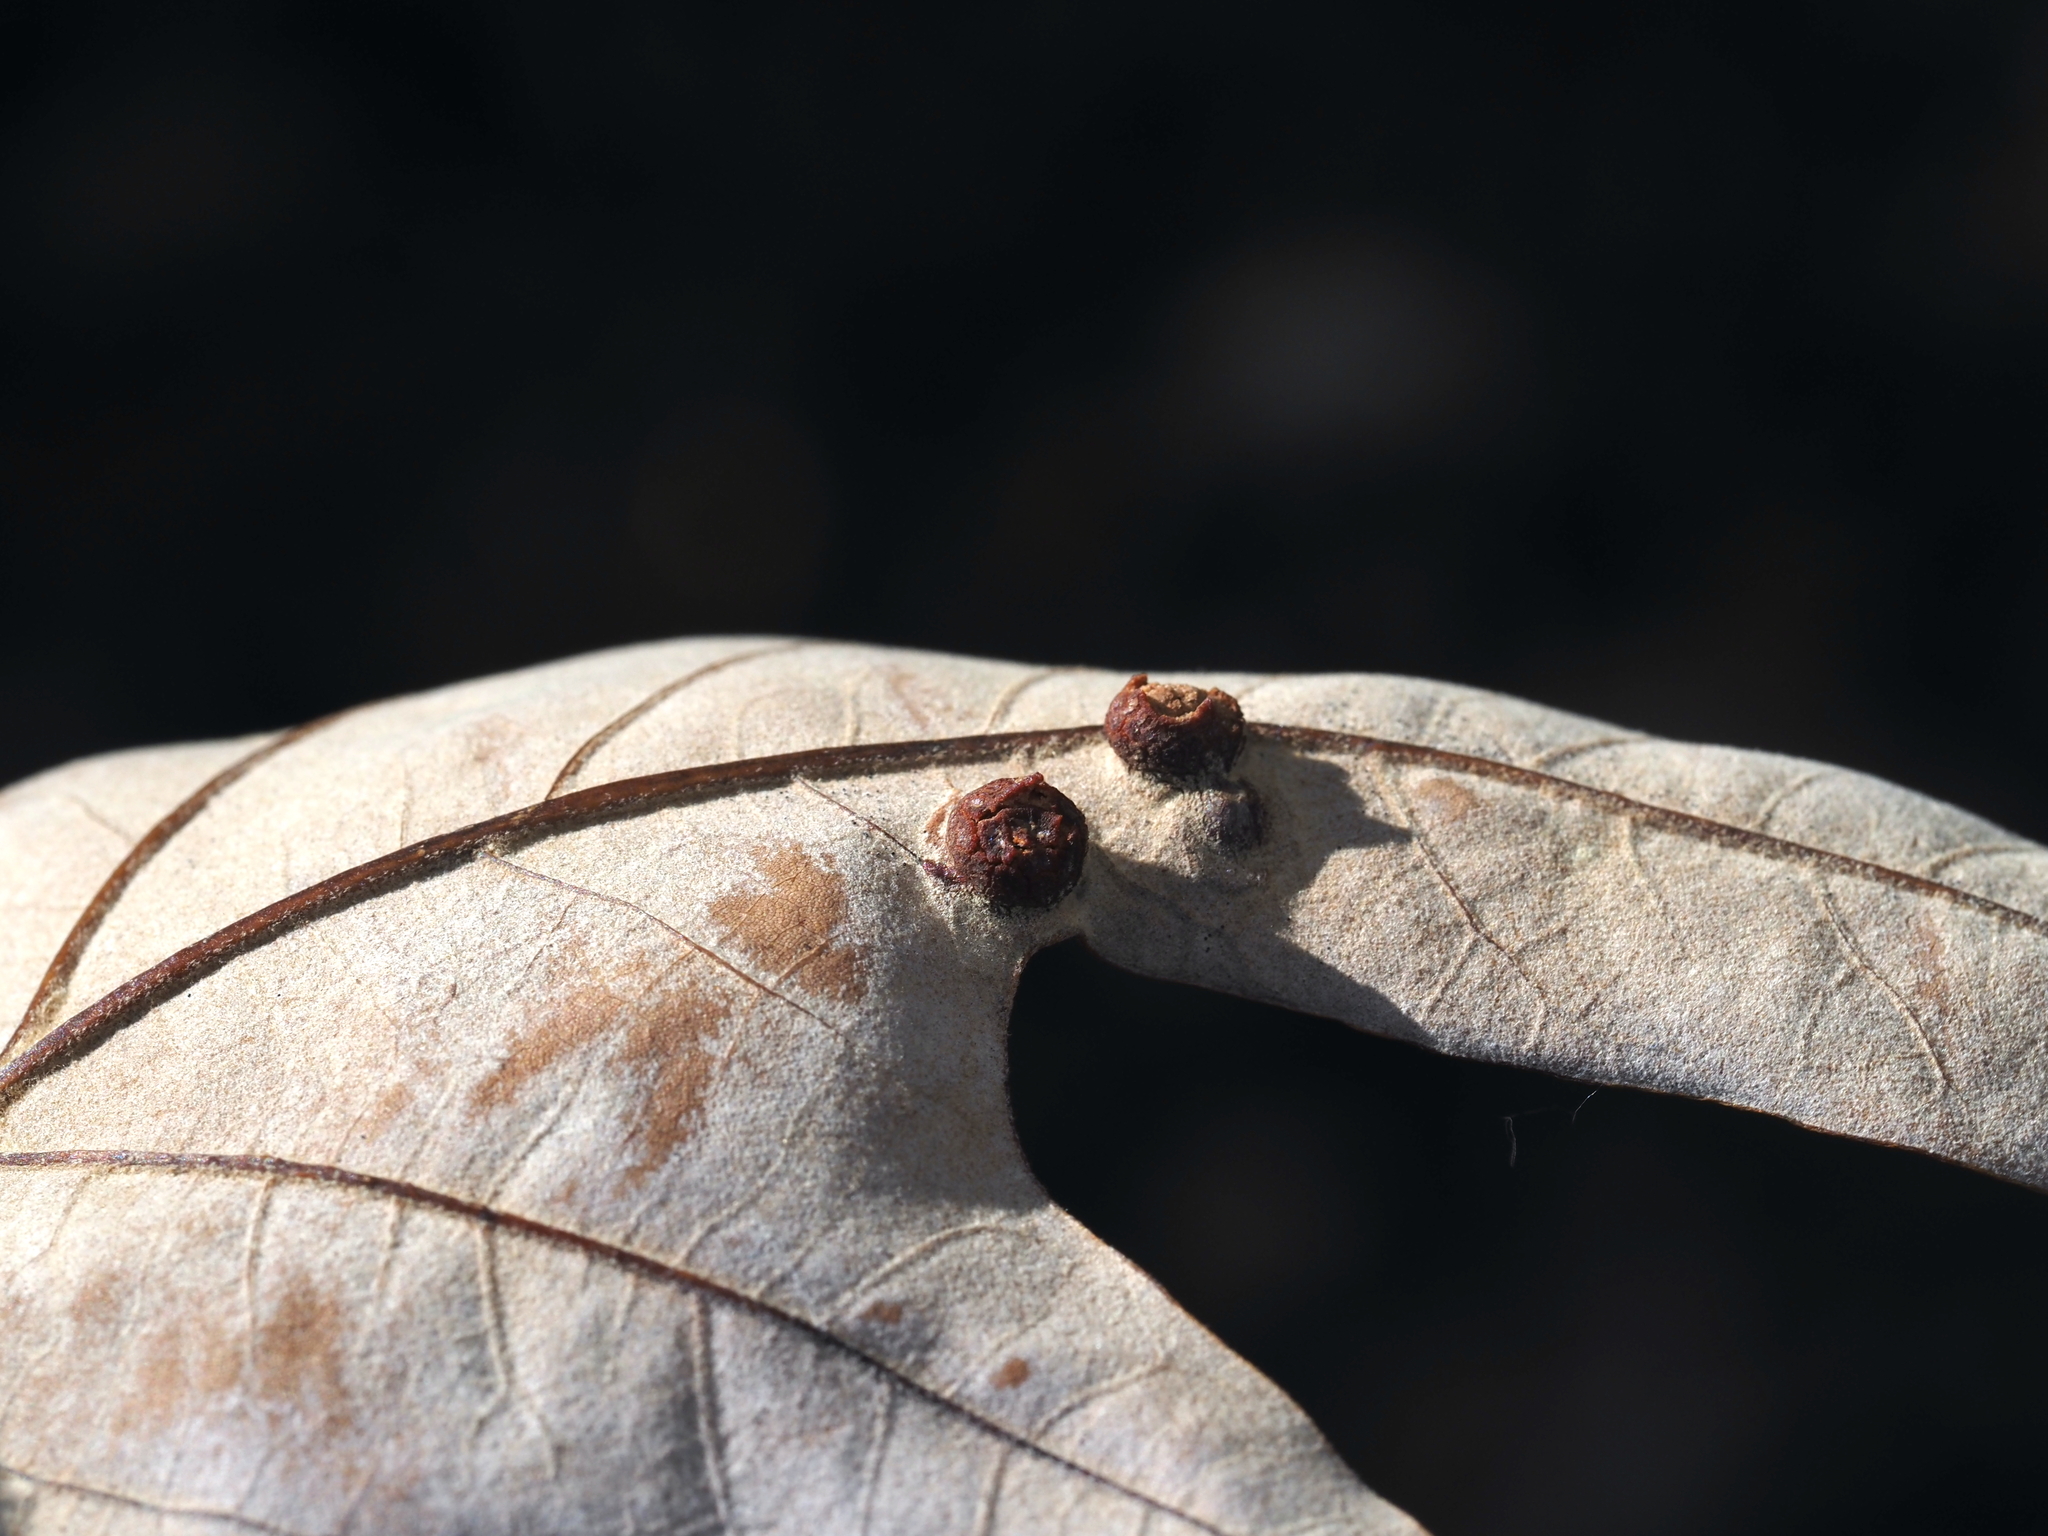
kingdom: Animalia
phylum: Arthropoda
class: Insecta
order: Diptera
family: Cecidomyiidae
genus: Polystepha
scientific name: Polystepha symmetrica
